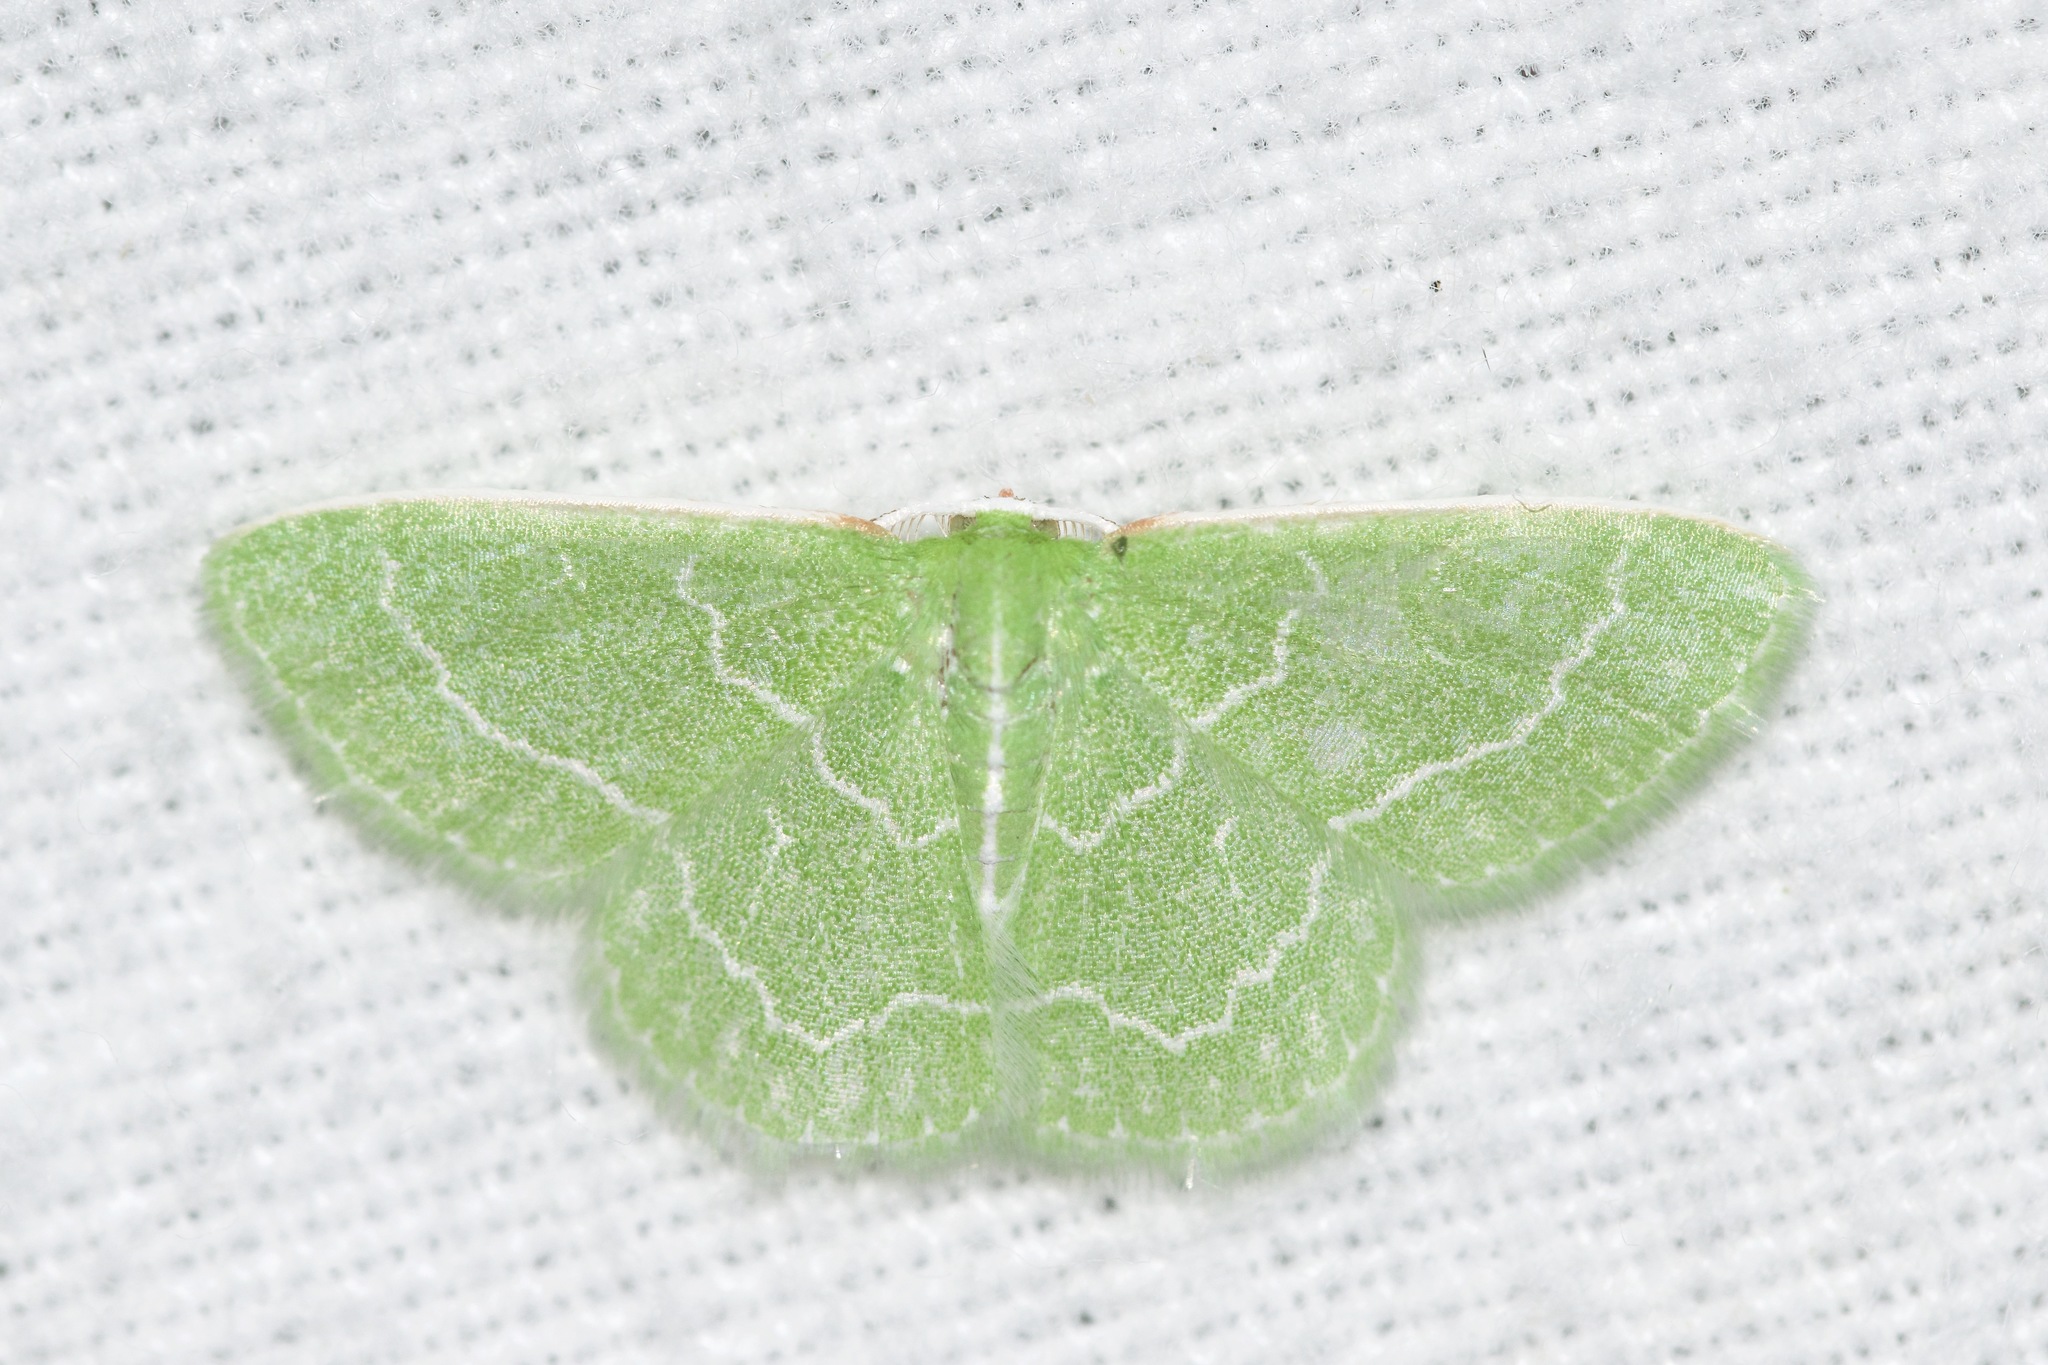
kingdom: Animalia
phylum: Arthropoda
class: Insecta
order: Lepidoptera
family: Geometridae
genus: Synchlora
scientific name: Synchlora aerata
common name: Wavy-lined emerald
